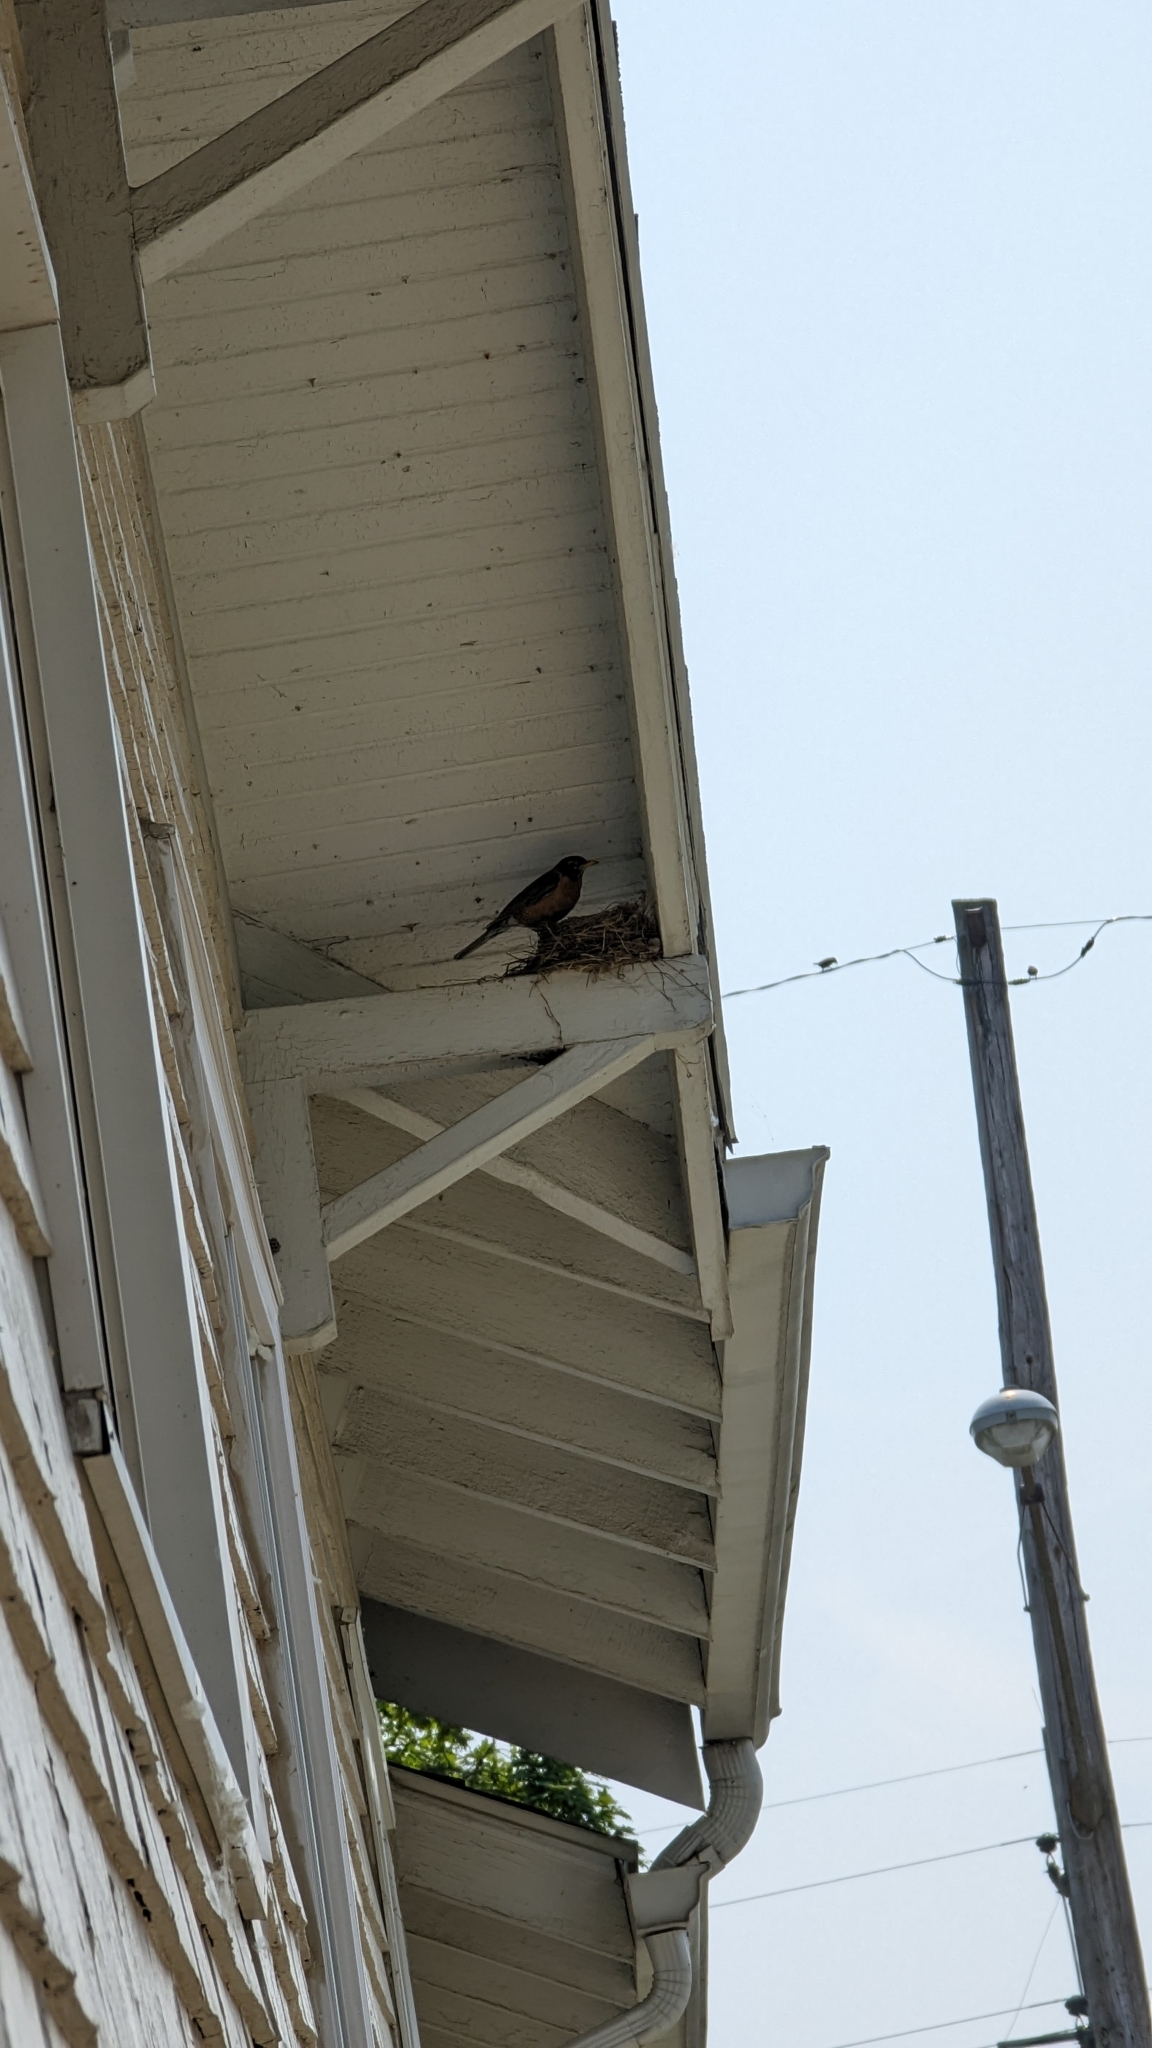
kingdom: Animalia
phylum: Chordata
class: Aves
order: Passeriformes
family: Turdidae
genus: Turdus
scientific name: Turdus migratorius
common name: American robin
